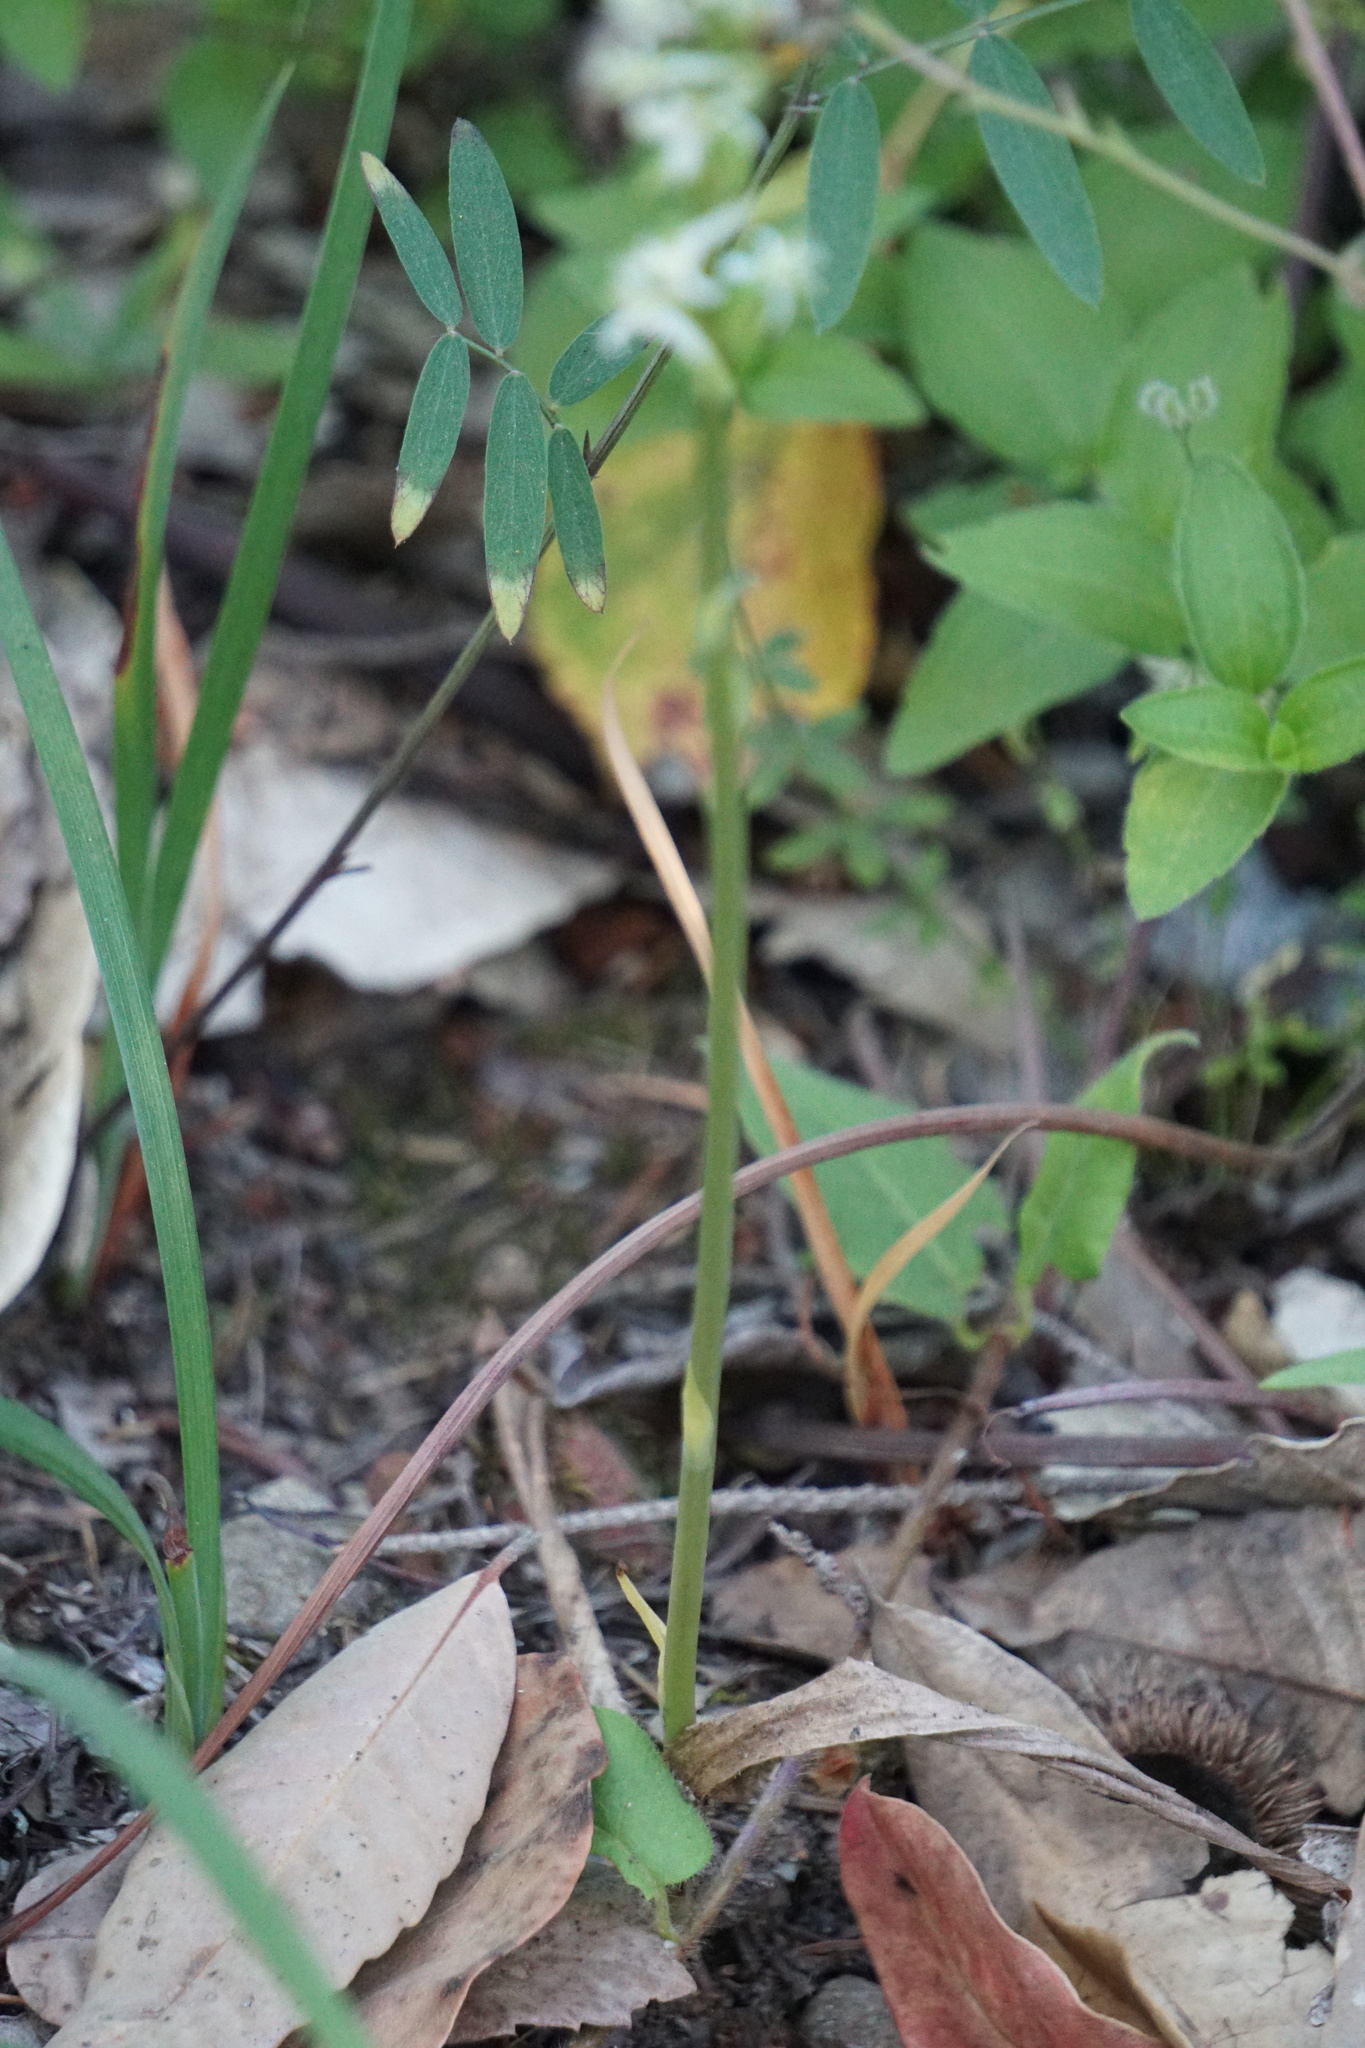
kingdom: Plantae
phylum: Tracheophyta
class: Liliopsida
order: Asparagales
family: Orchidaceae
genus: Platanthera
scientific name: Platanthera transversa
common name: Royal rein orchid
